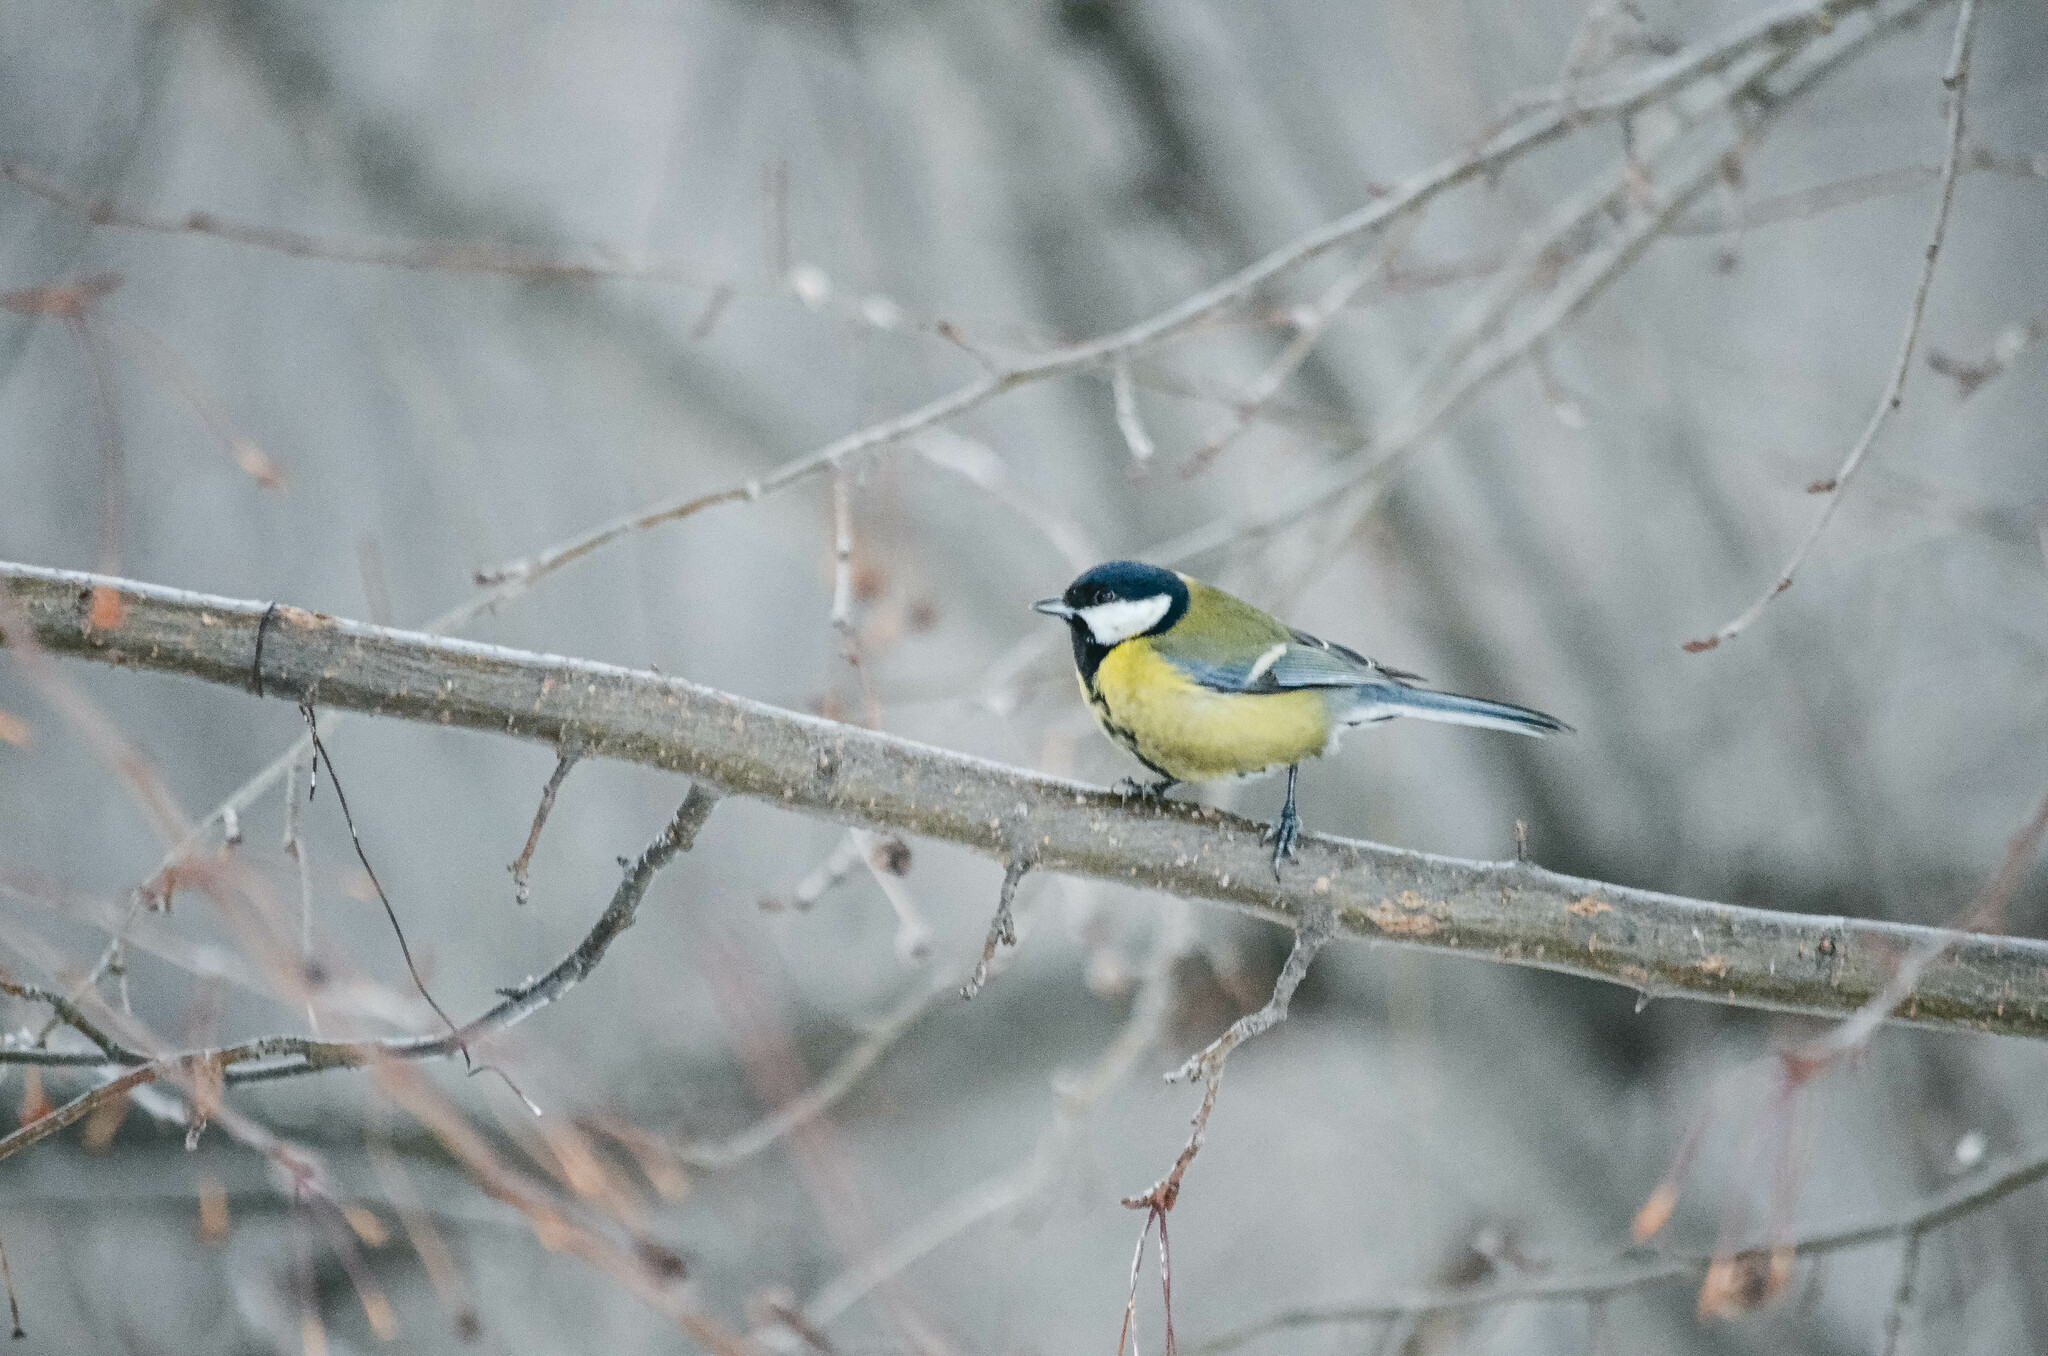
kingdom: Animalia
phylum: Chordata
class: Aves
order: Passeriformes
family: Paridae
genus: Parus
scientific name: Parus major
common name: Great tit
